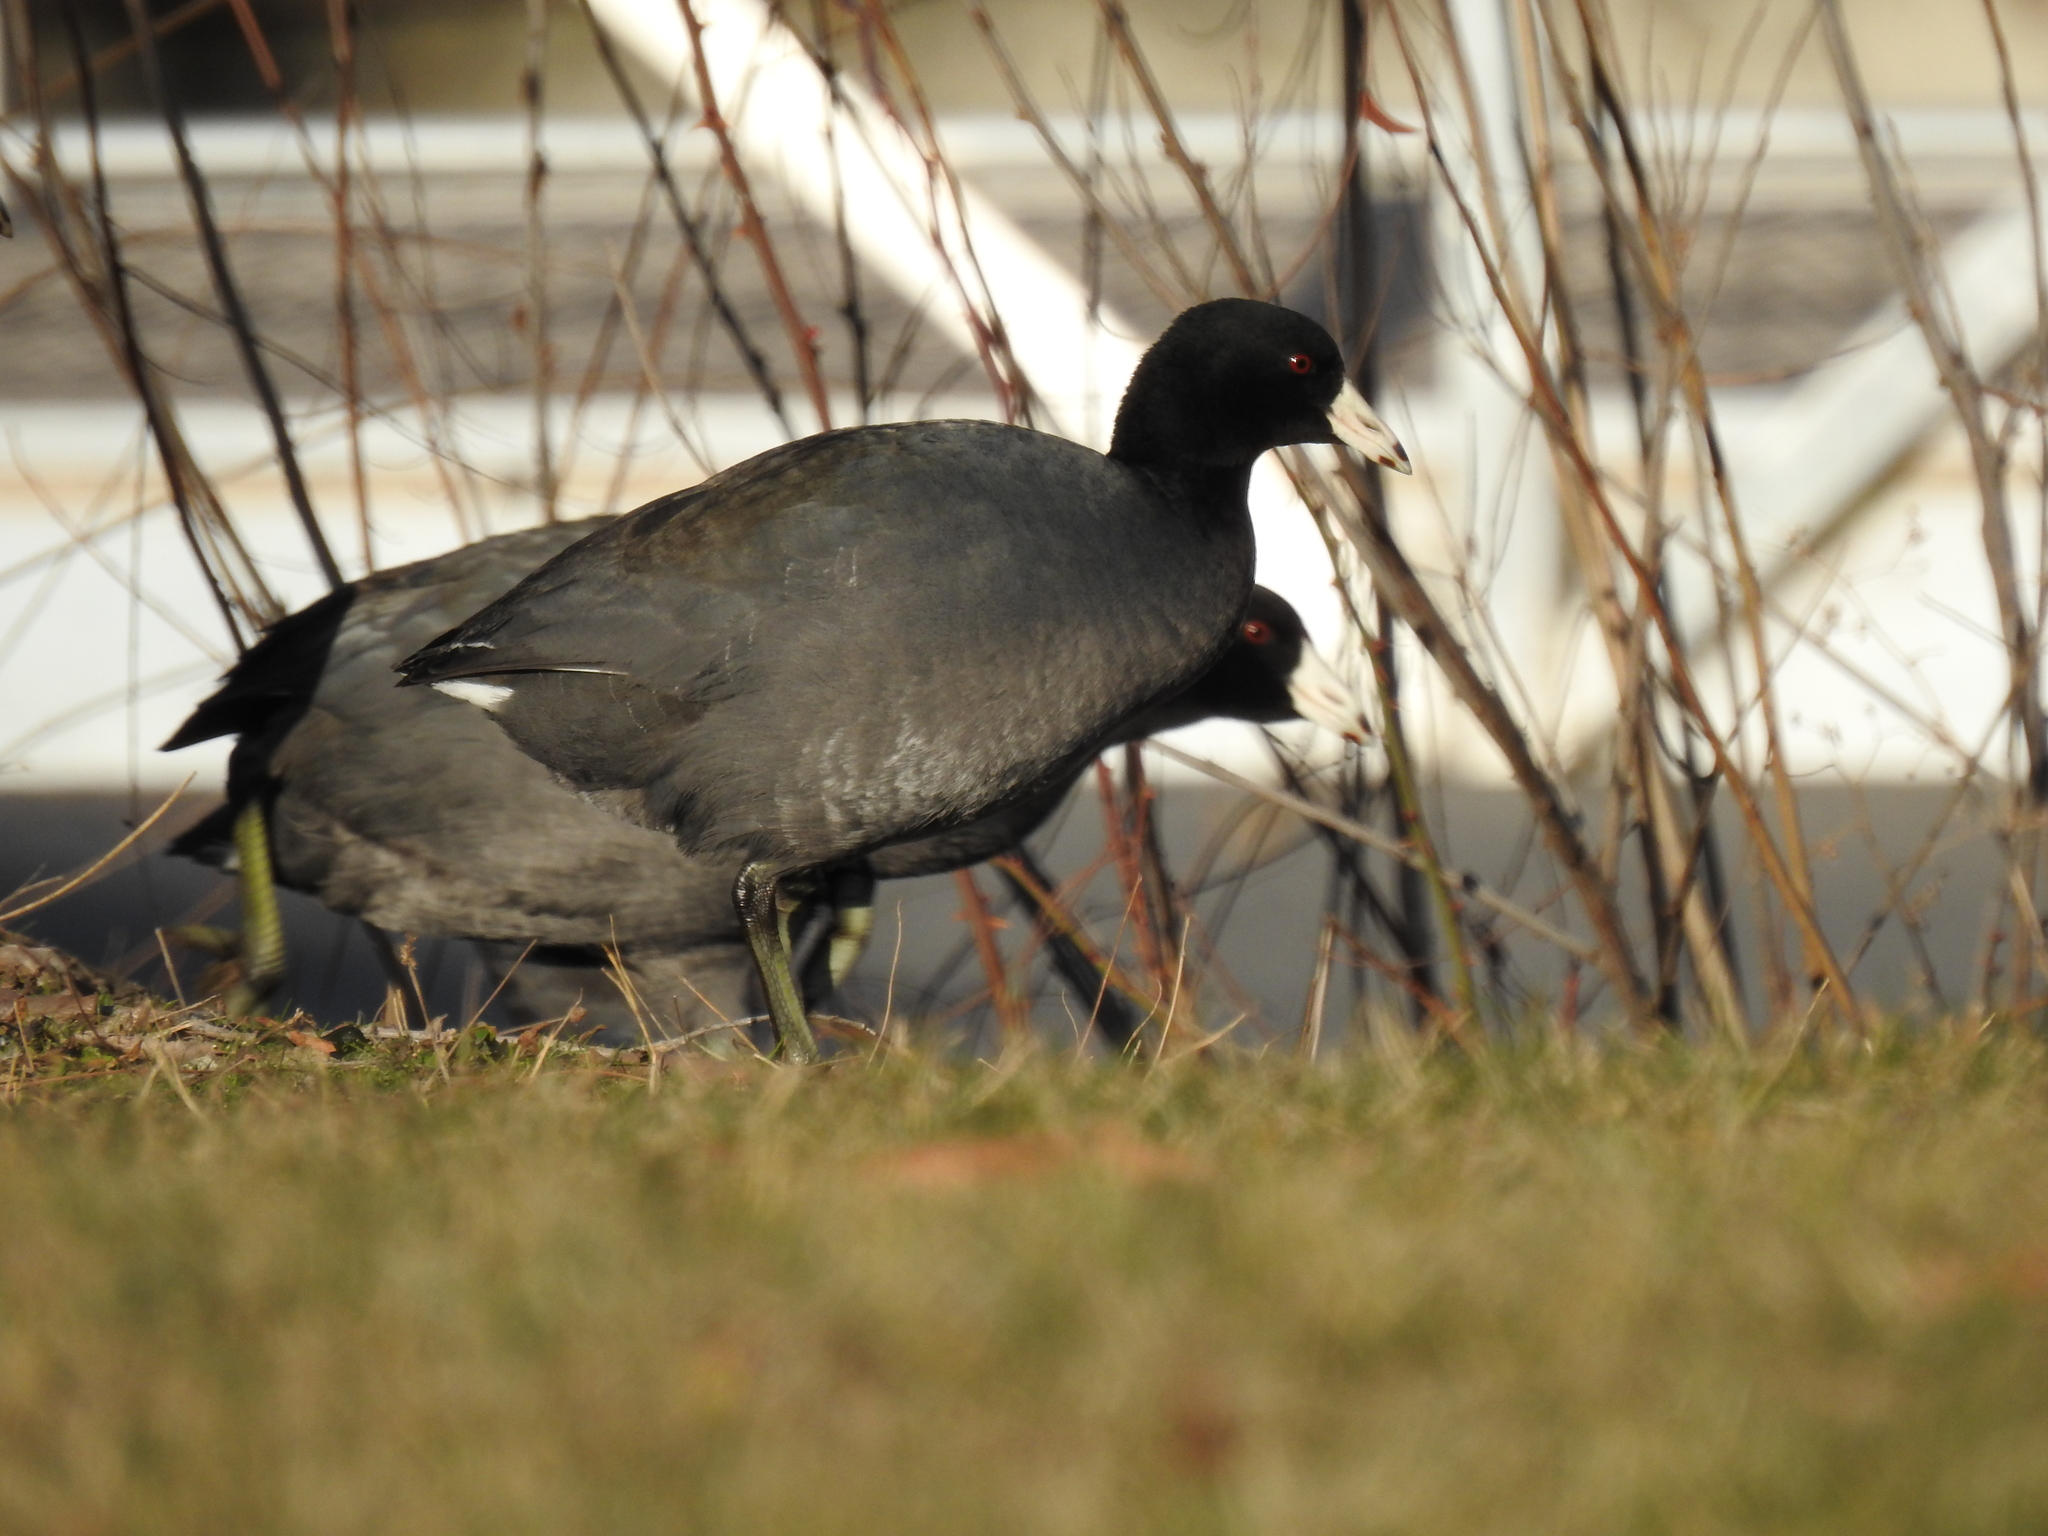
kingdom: Animalia
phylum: Chordata
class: Aves
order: Gruiformes
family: Rallidae
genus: Fulica
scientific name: Fulica americana
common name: American coot
